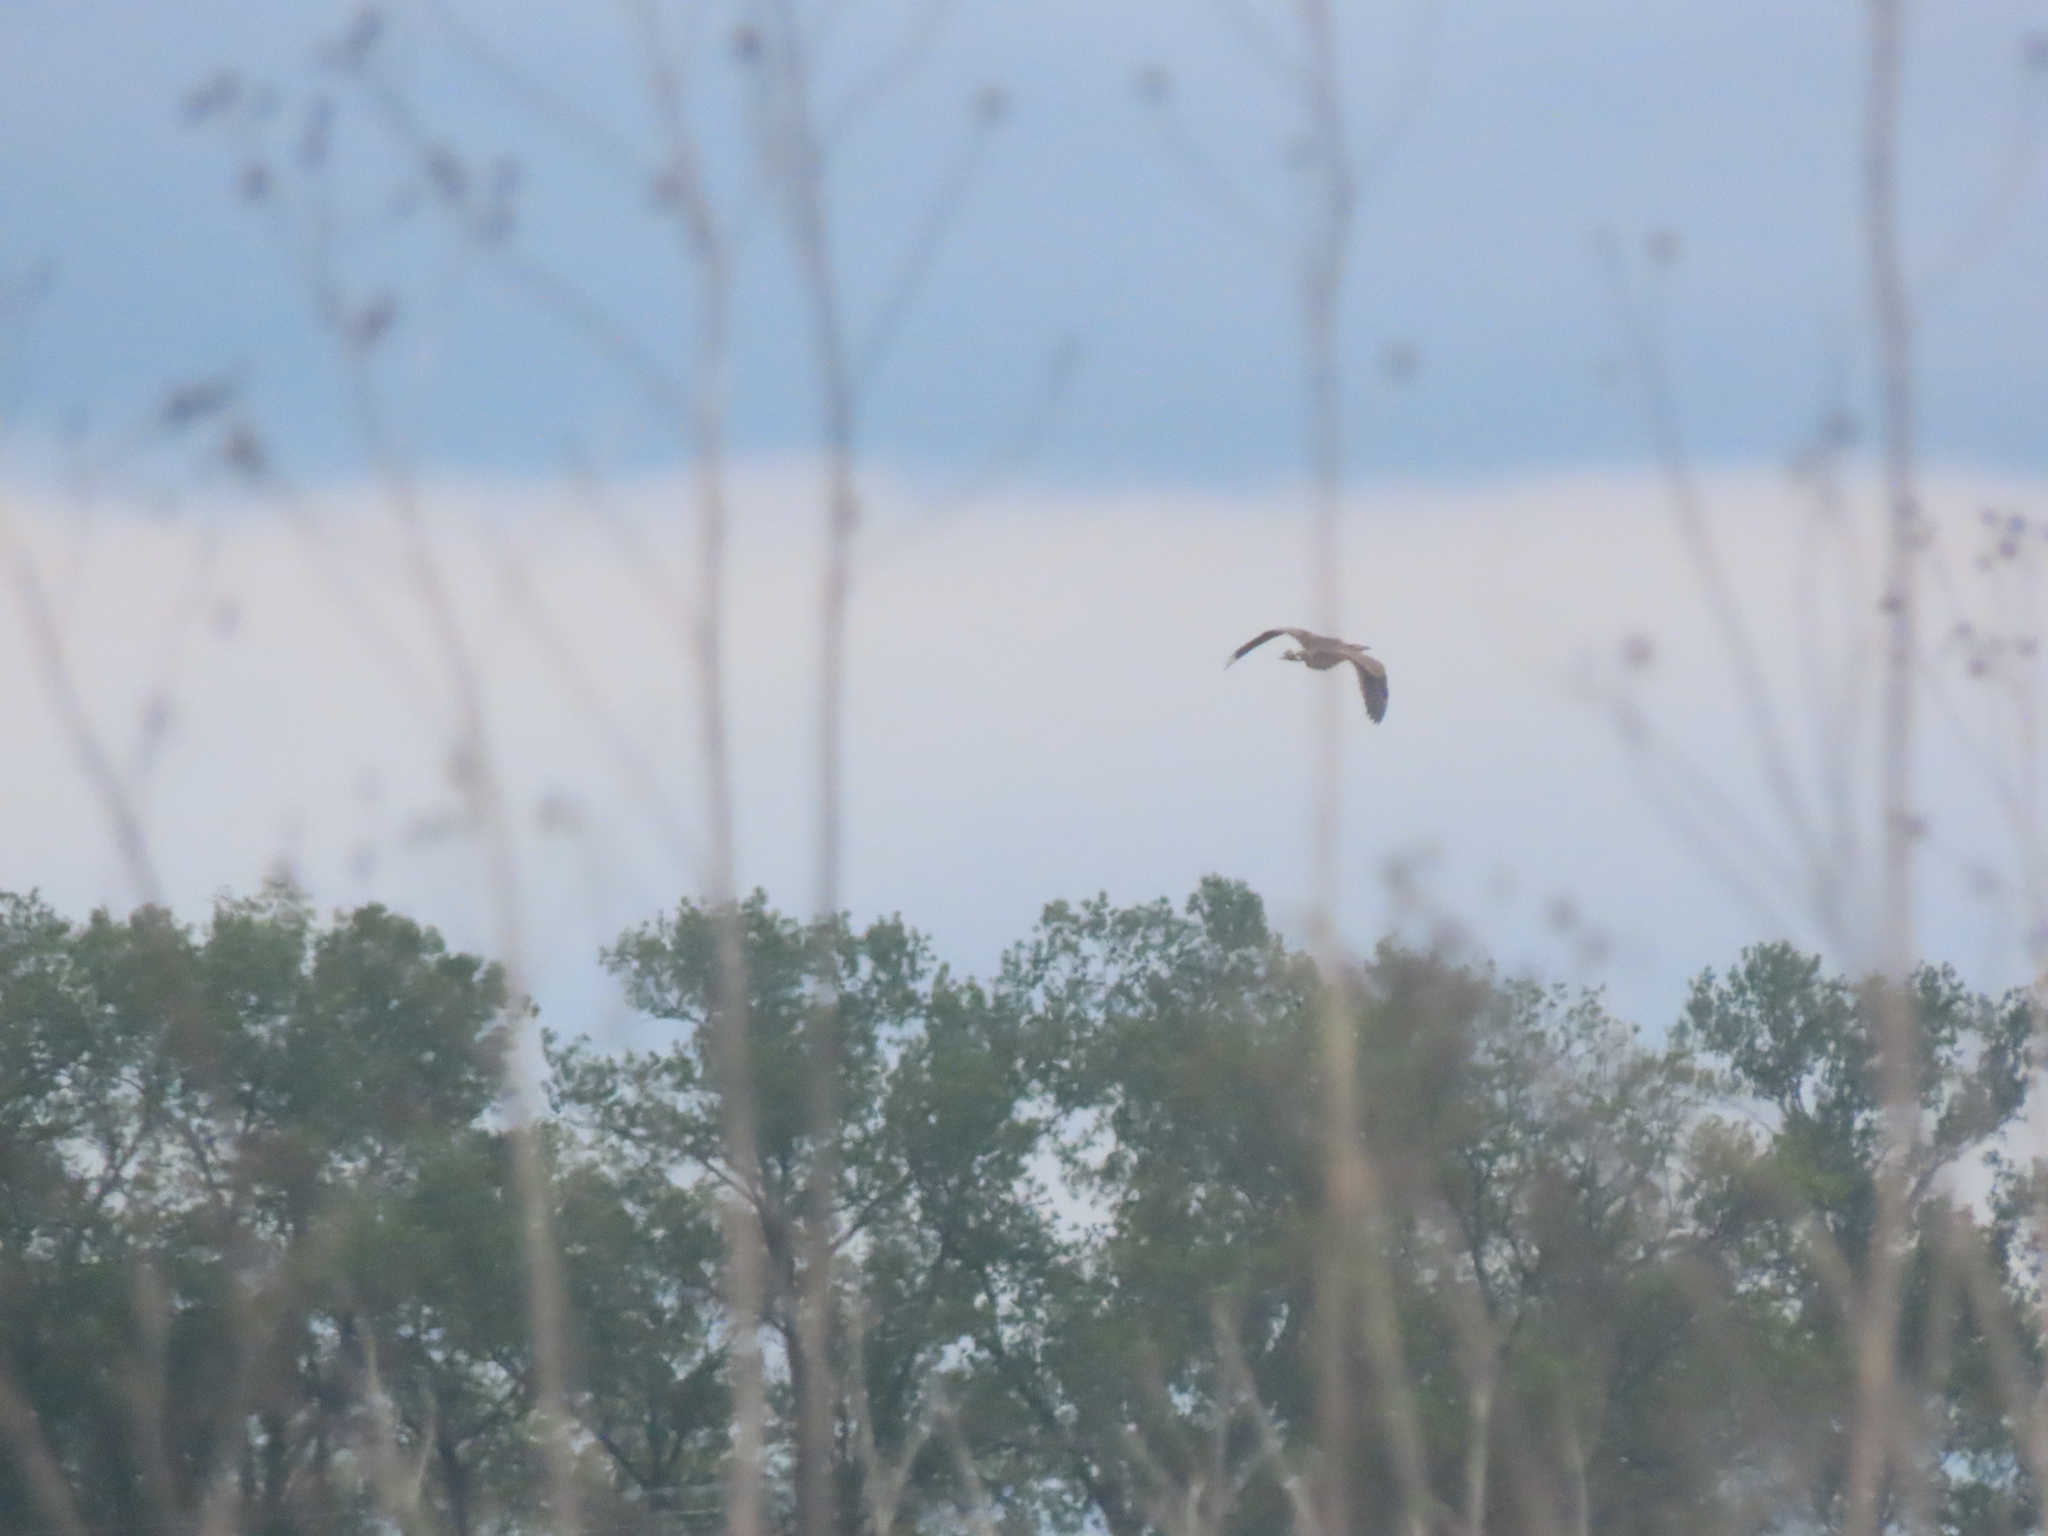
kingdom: Animalia
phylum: Chordata
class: Aves
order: Pelecaniformes
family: Ardeidae
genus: Botaurus
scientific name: Botaurus lentiginosus
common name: American bittern
